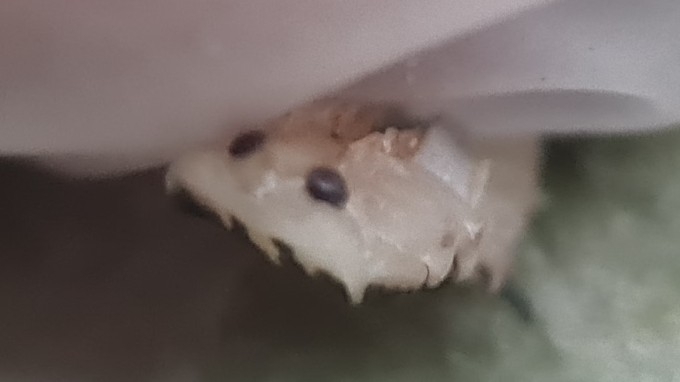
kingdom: Animalia
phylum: Arthropoda
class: Insecta
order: Coleoptera
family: Coccinellidae
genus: Illeis
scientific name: Illeis galbula
